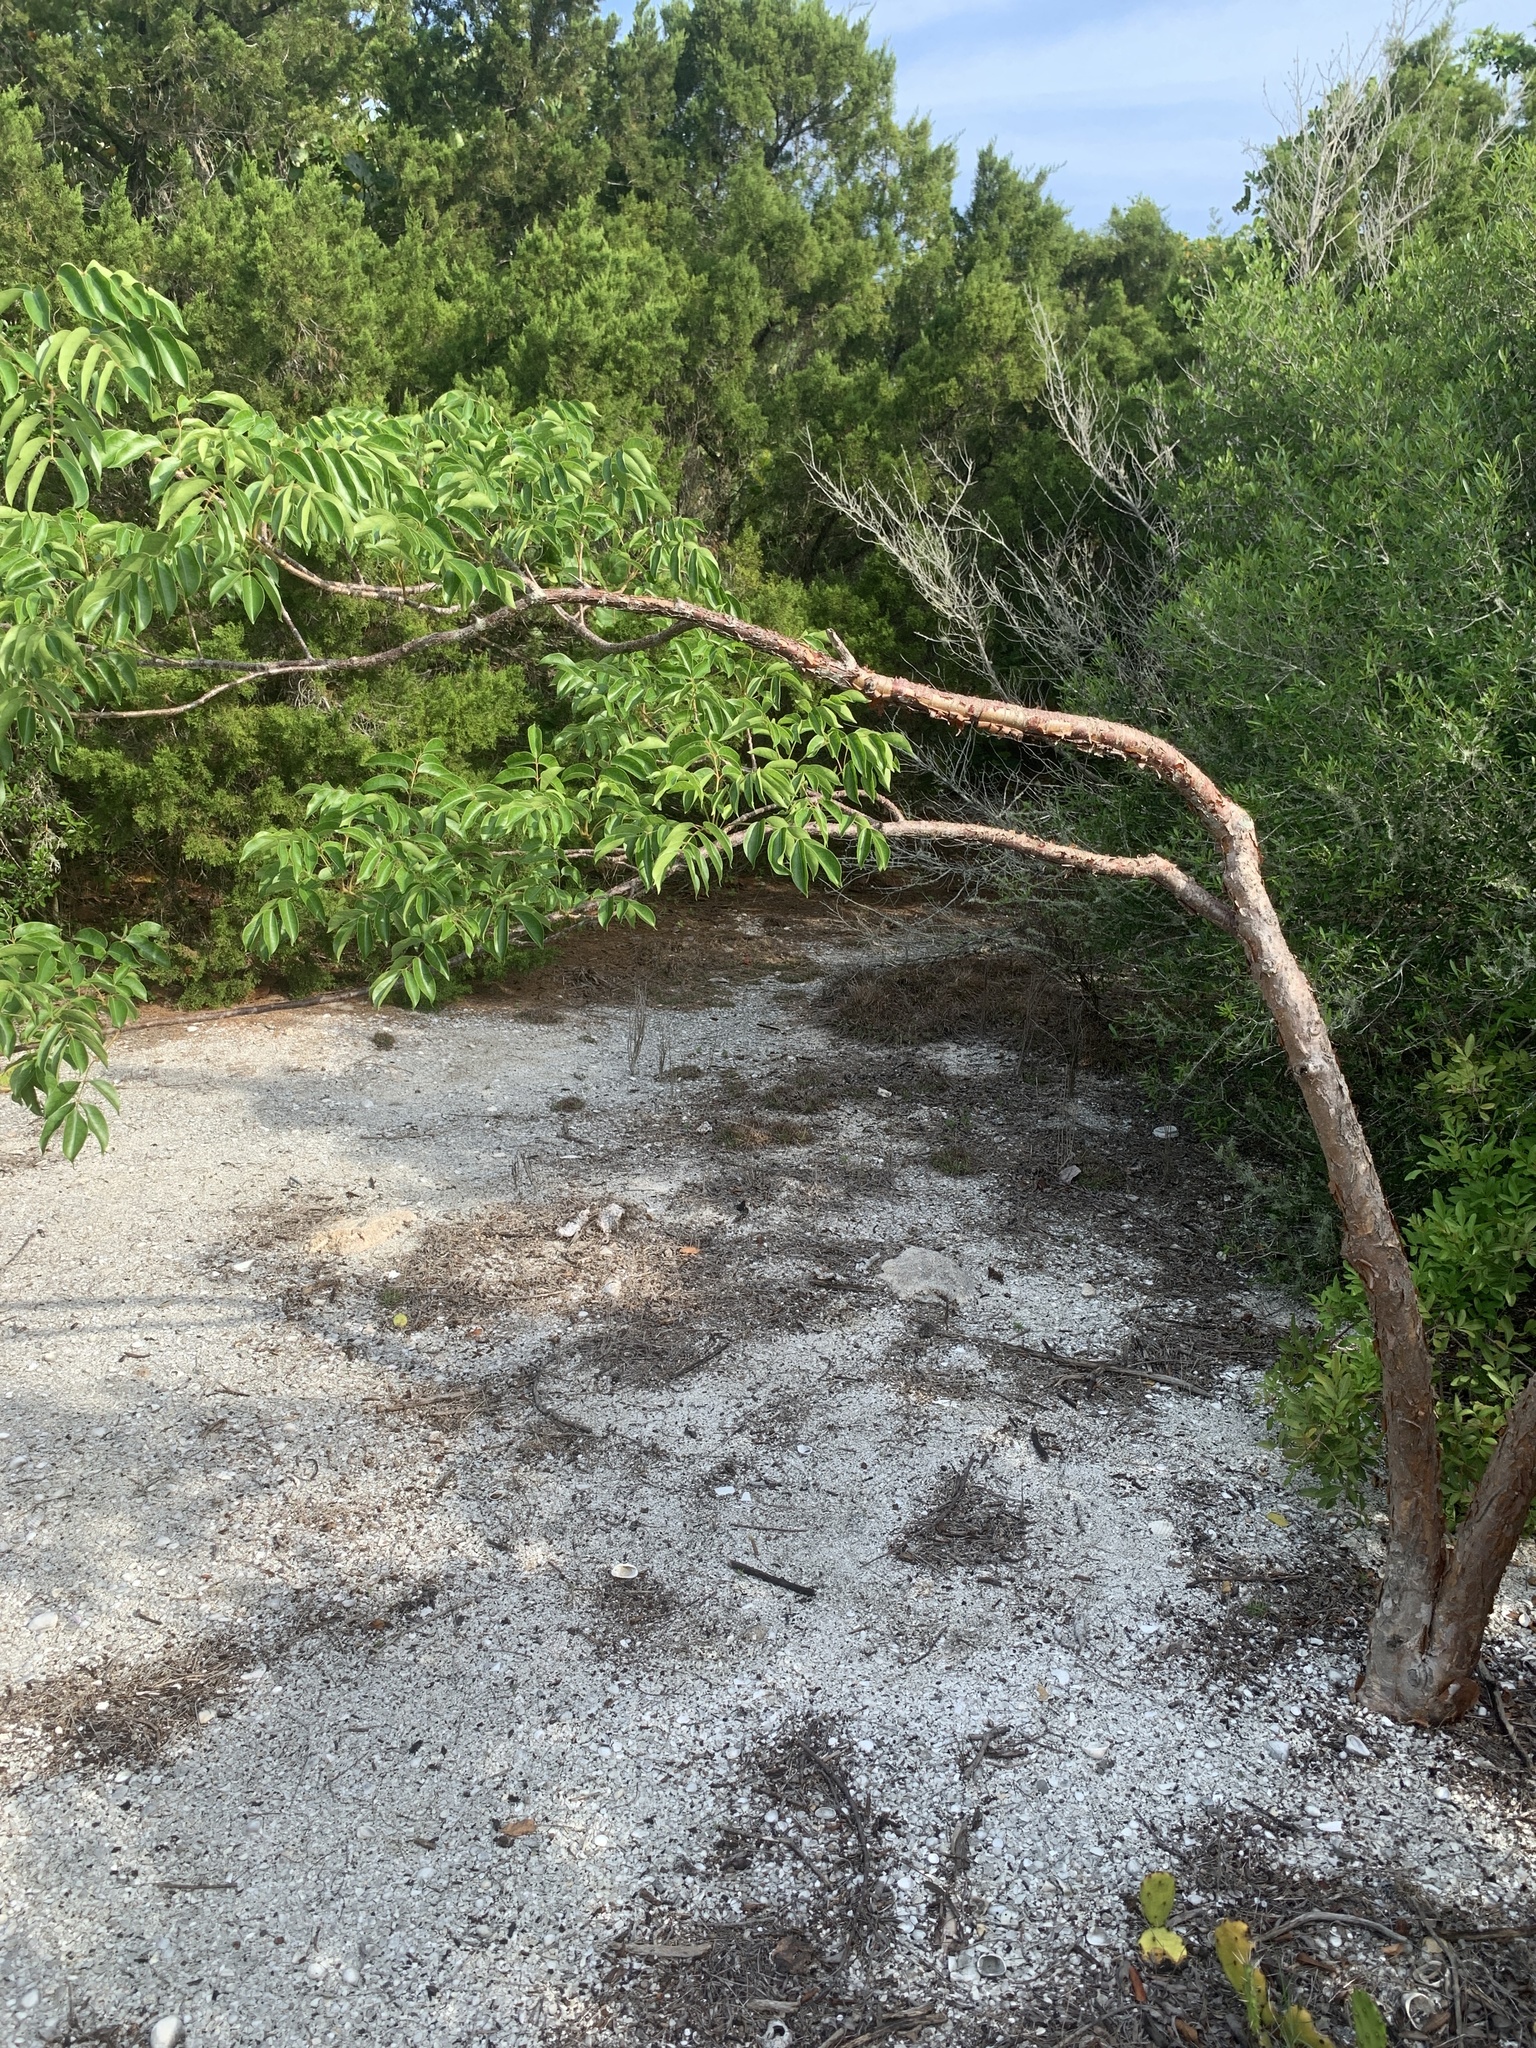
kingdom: Plantae
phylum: Tracheophyta
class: Magnoliopsida
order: Sapindales
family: Burseraceae
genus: Bursera
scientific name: Bursera simaruba
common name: Turpentine tree
